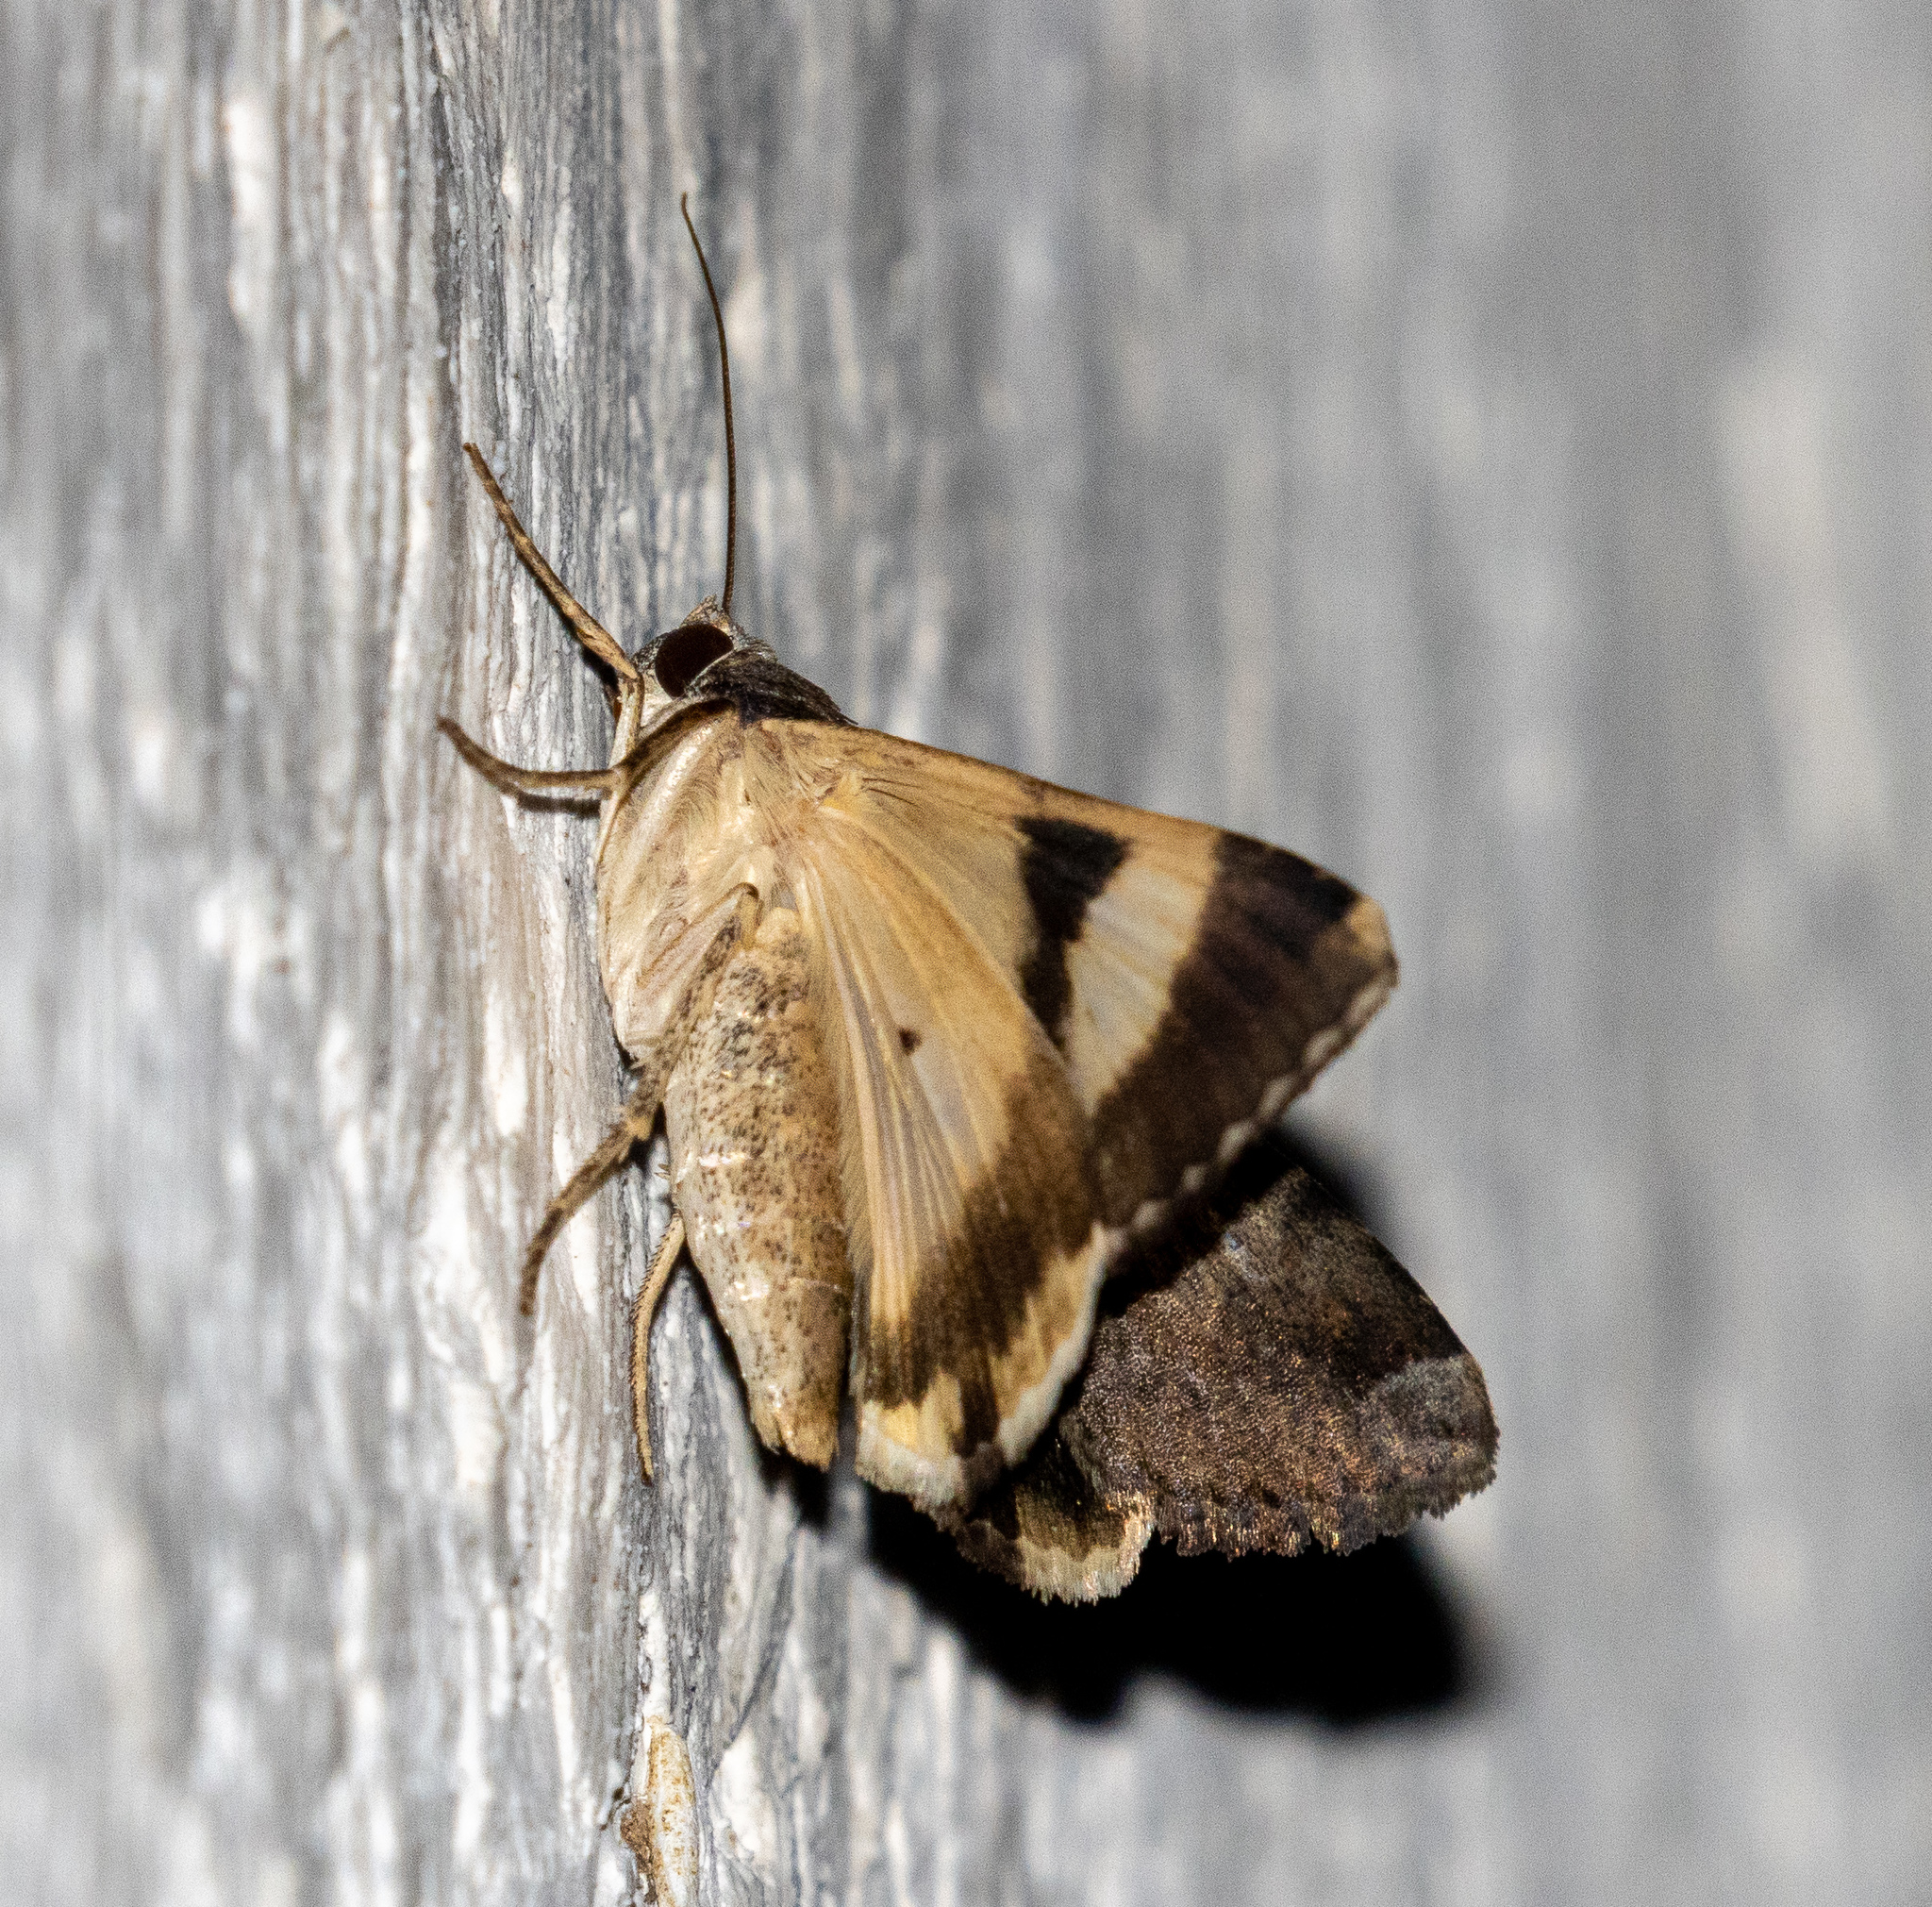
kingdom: Animalia
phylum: Arthropoda
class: Insecta
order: Lepidoptera
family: Erebidae
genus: Melipotis
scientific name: Melipotis ochrodes
